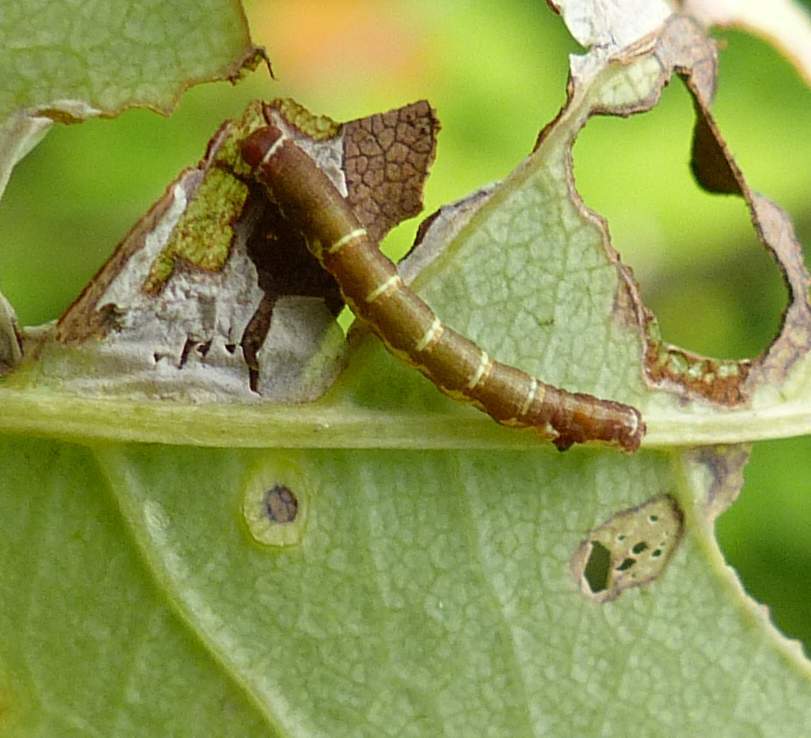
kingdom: Animalia
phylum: Arthropoda
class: Insecta
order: Lepidoptera
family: Geometridae
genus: Hypagyrtis
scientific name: Hypagyrtis unipunctata
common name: One-spotted variant
